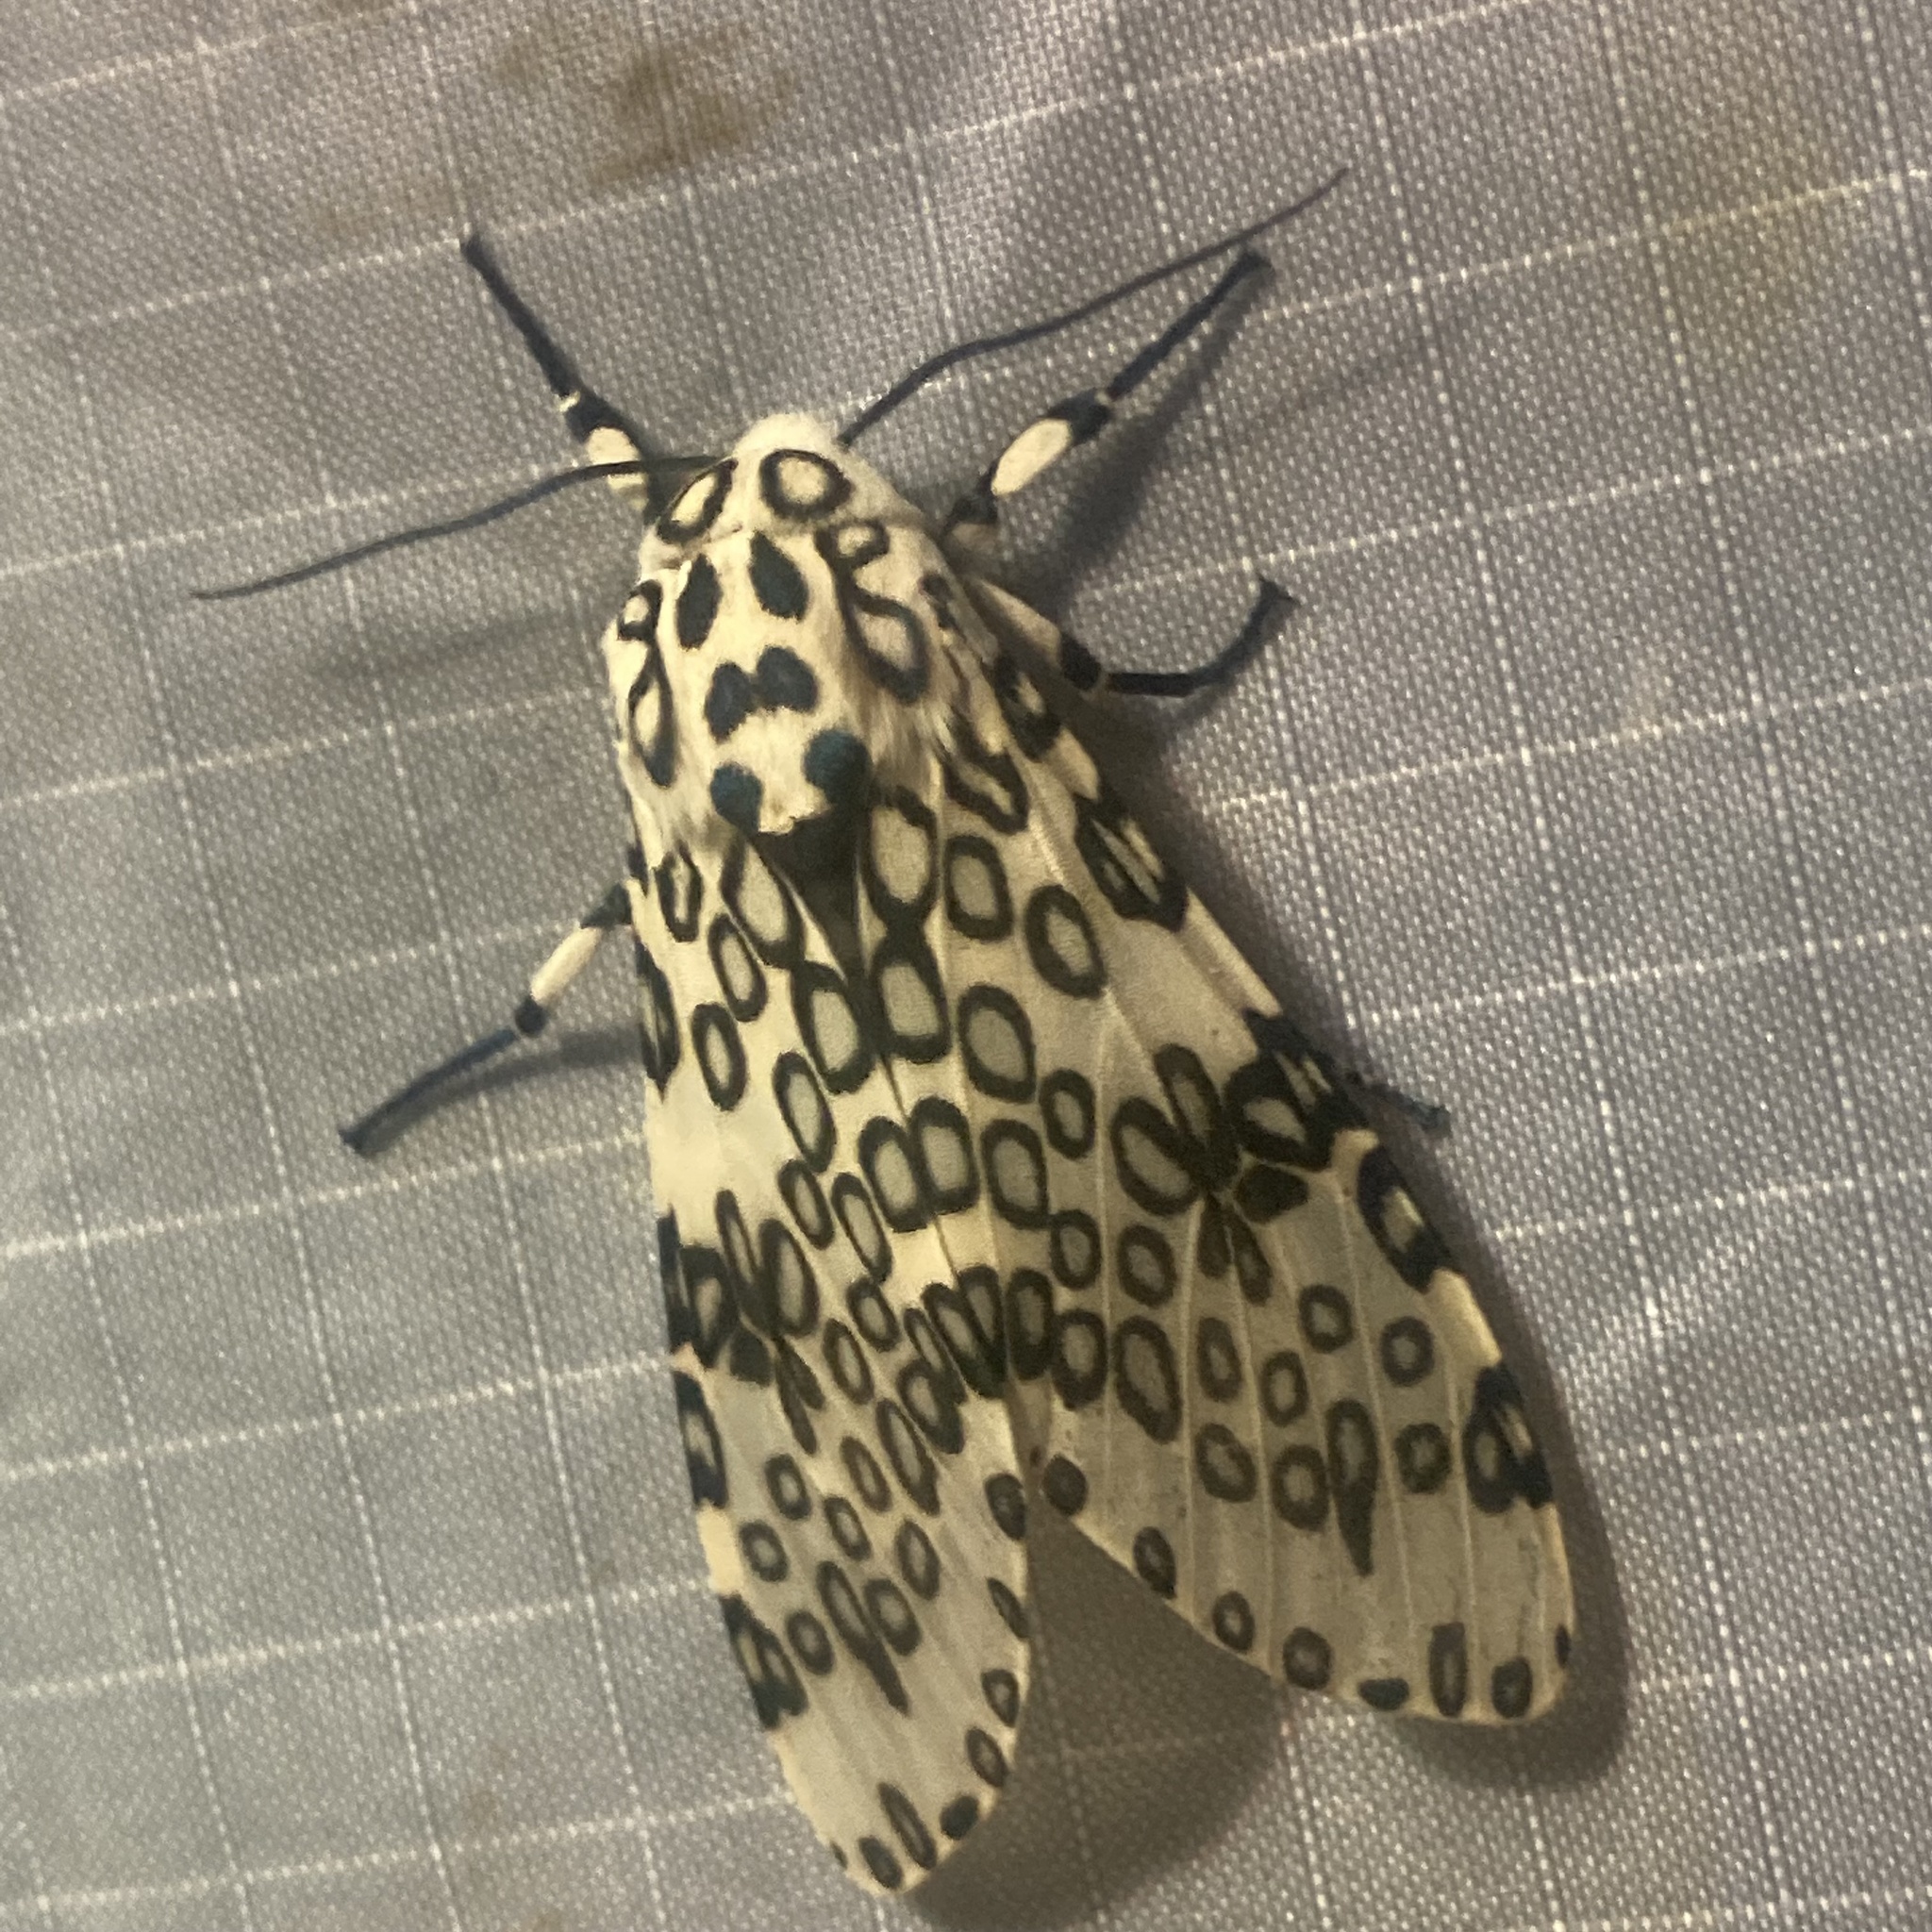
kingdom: Animalia
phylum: Arthropoda
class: Insecta
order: Lepidoptera
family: Erebidae
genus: Hypercompe
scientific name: Hypercompe scribonia
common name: Giant leopard moth
